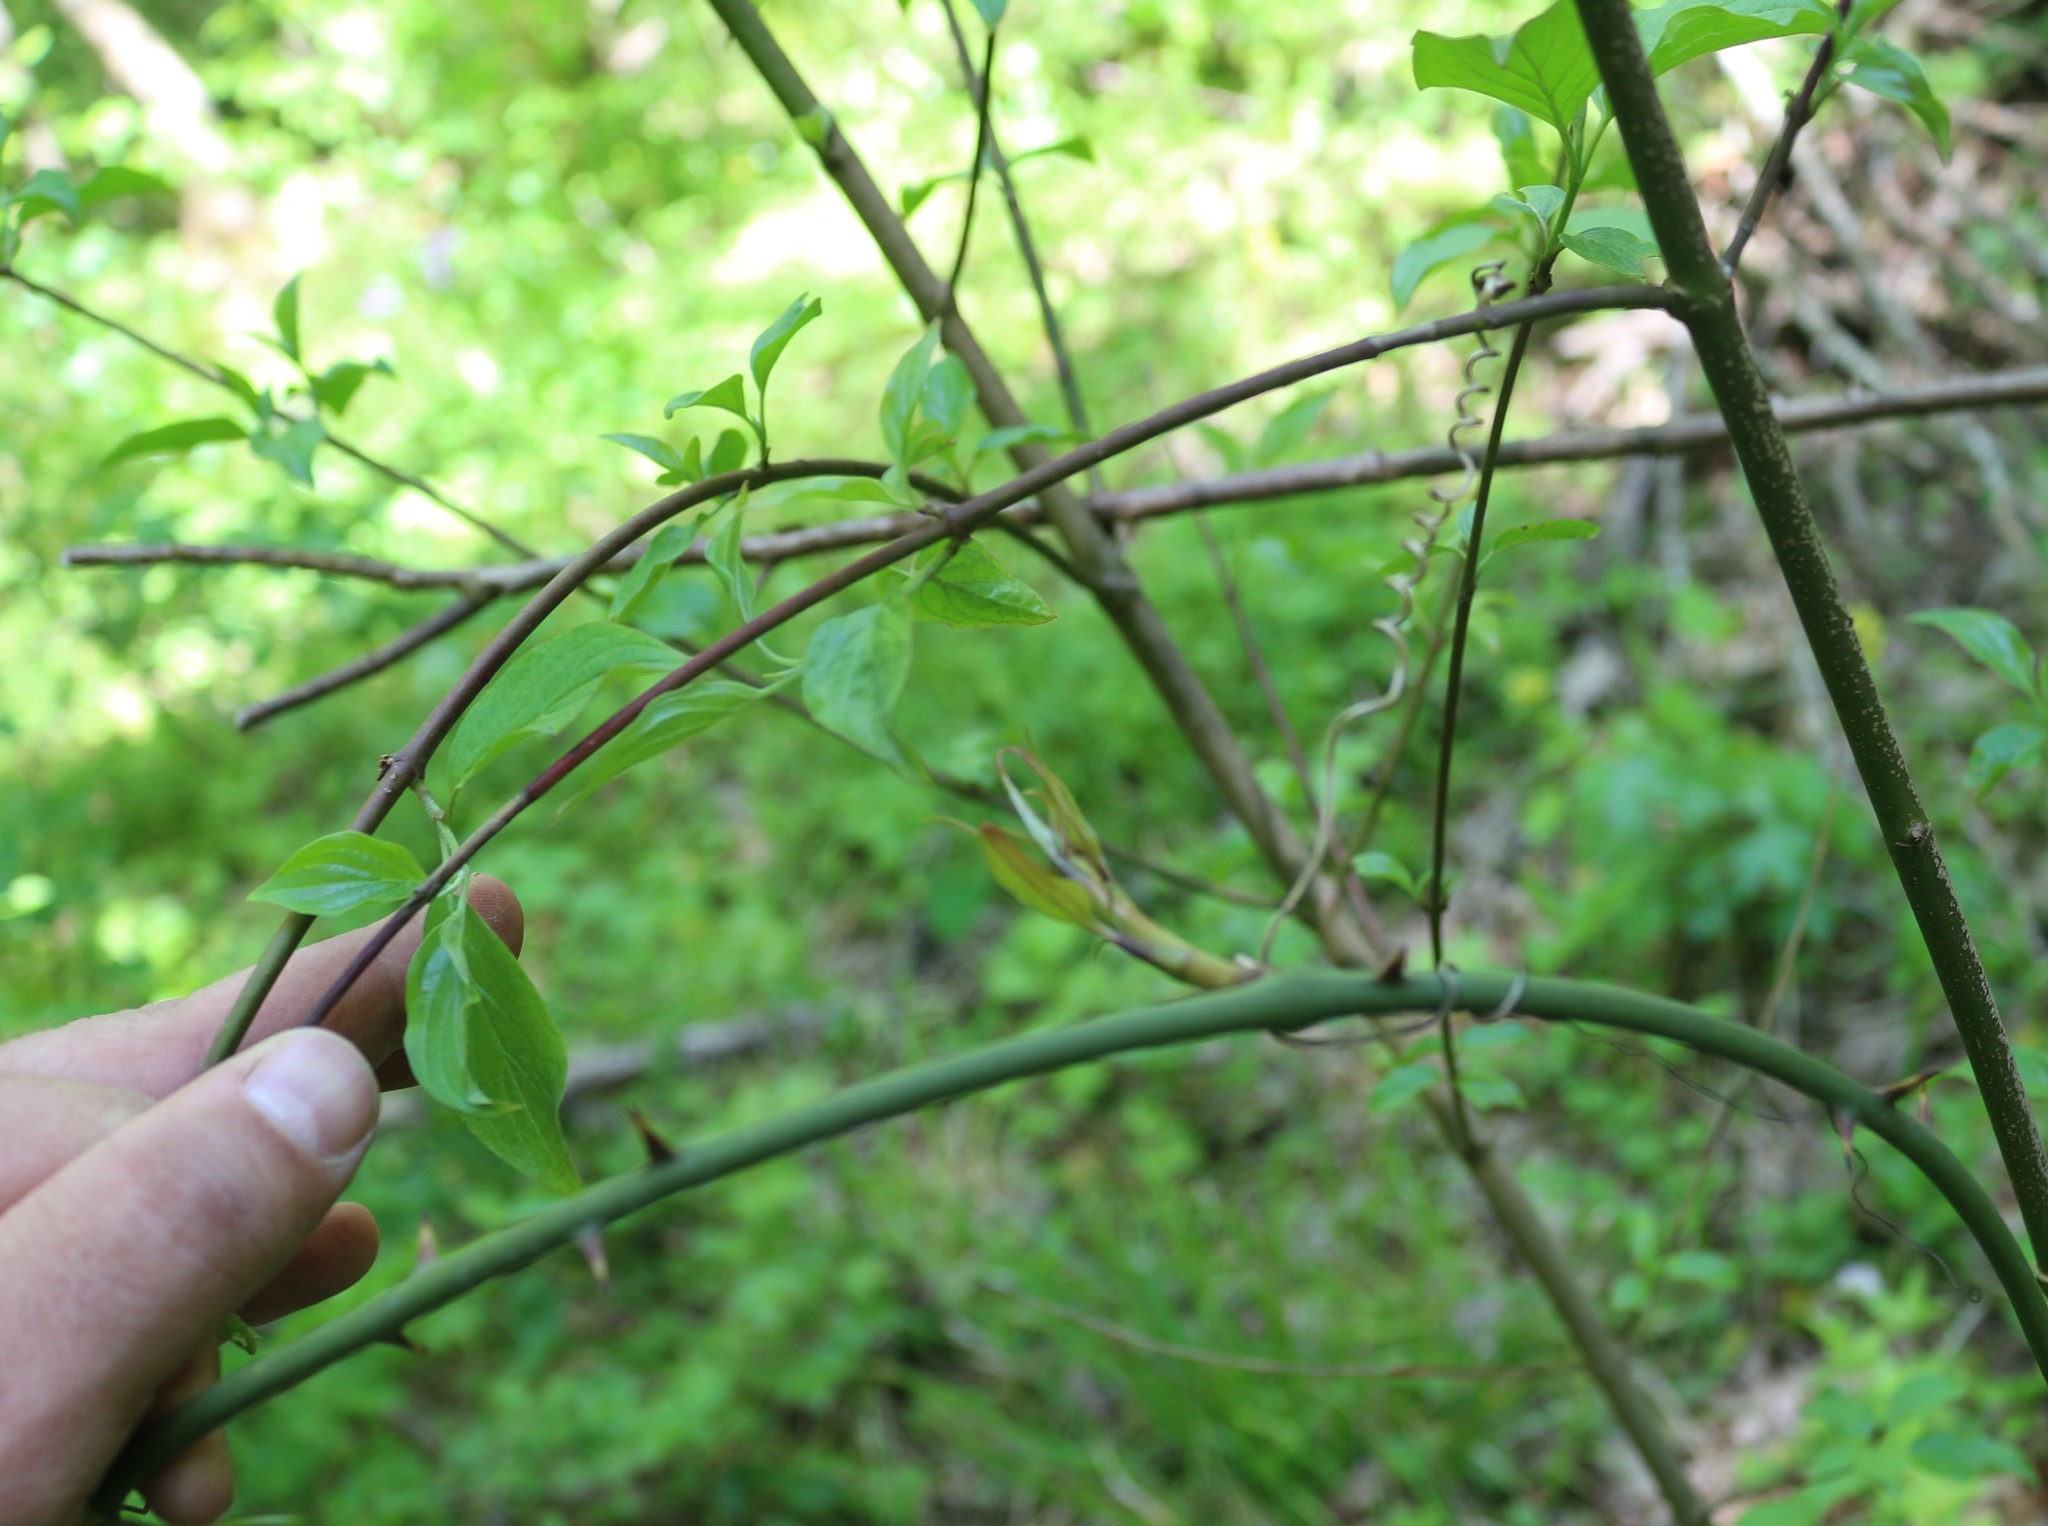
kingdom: Plantae
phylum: Tracheophyta
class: Liliopsida
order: Liliales
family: Smilacaceae
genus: Smilax
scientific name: Smilax excelsa
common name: Larger smilax
